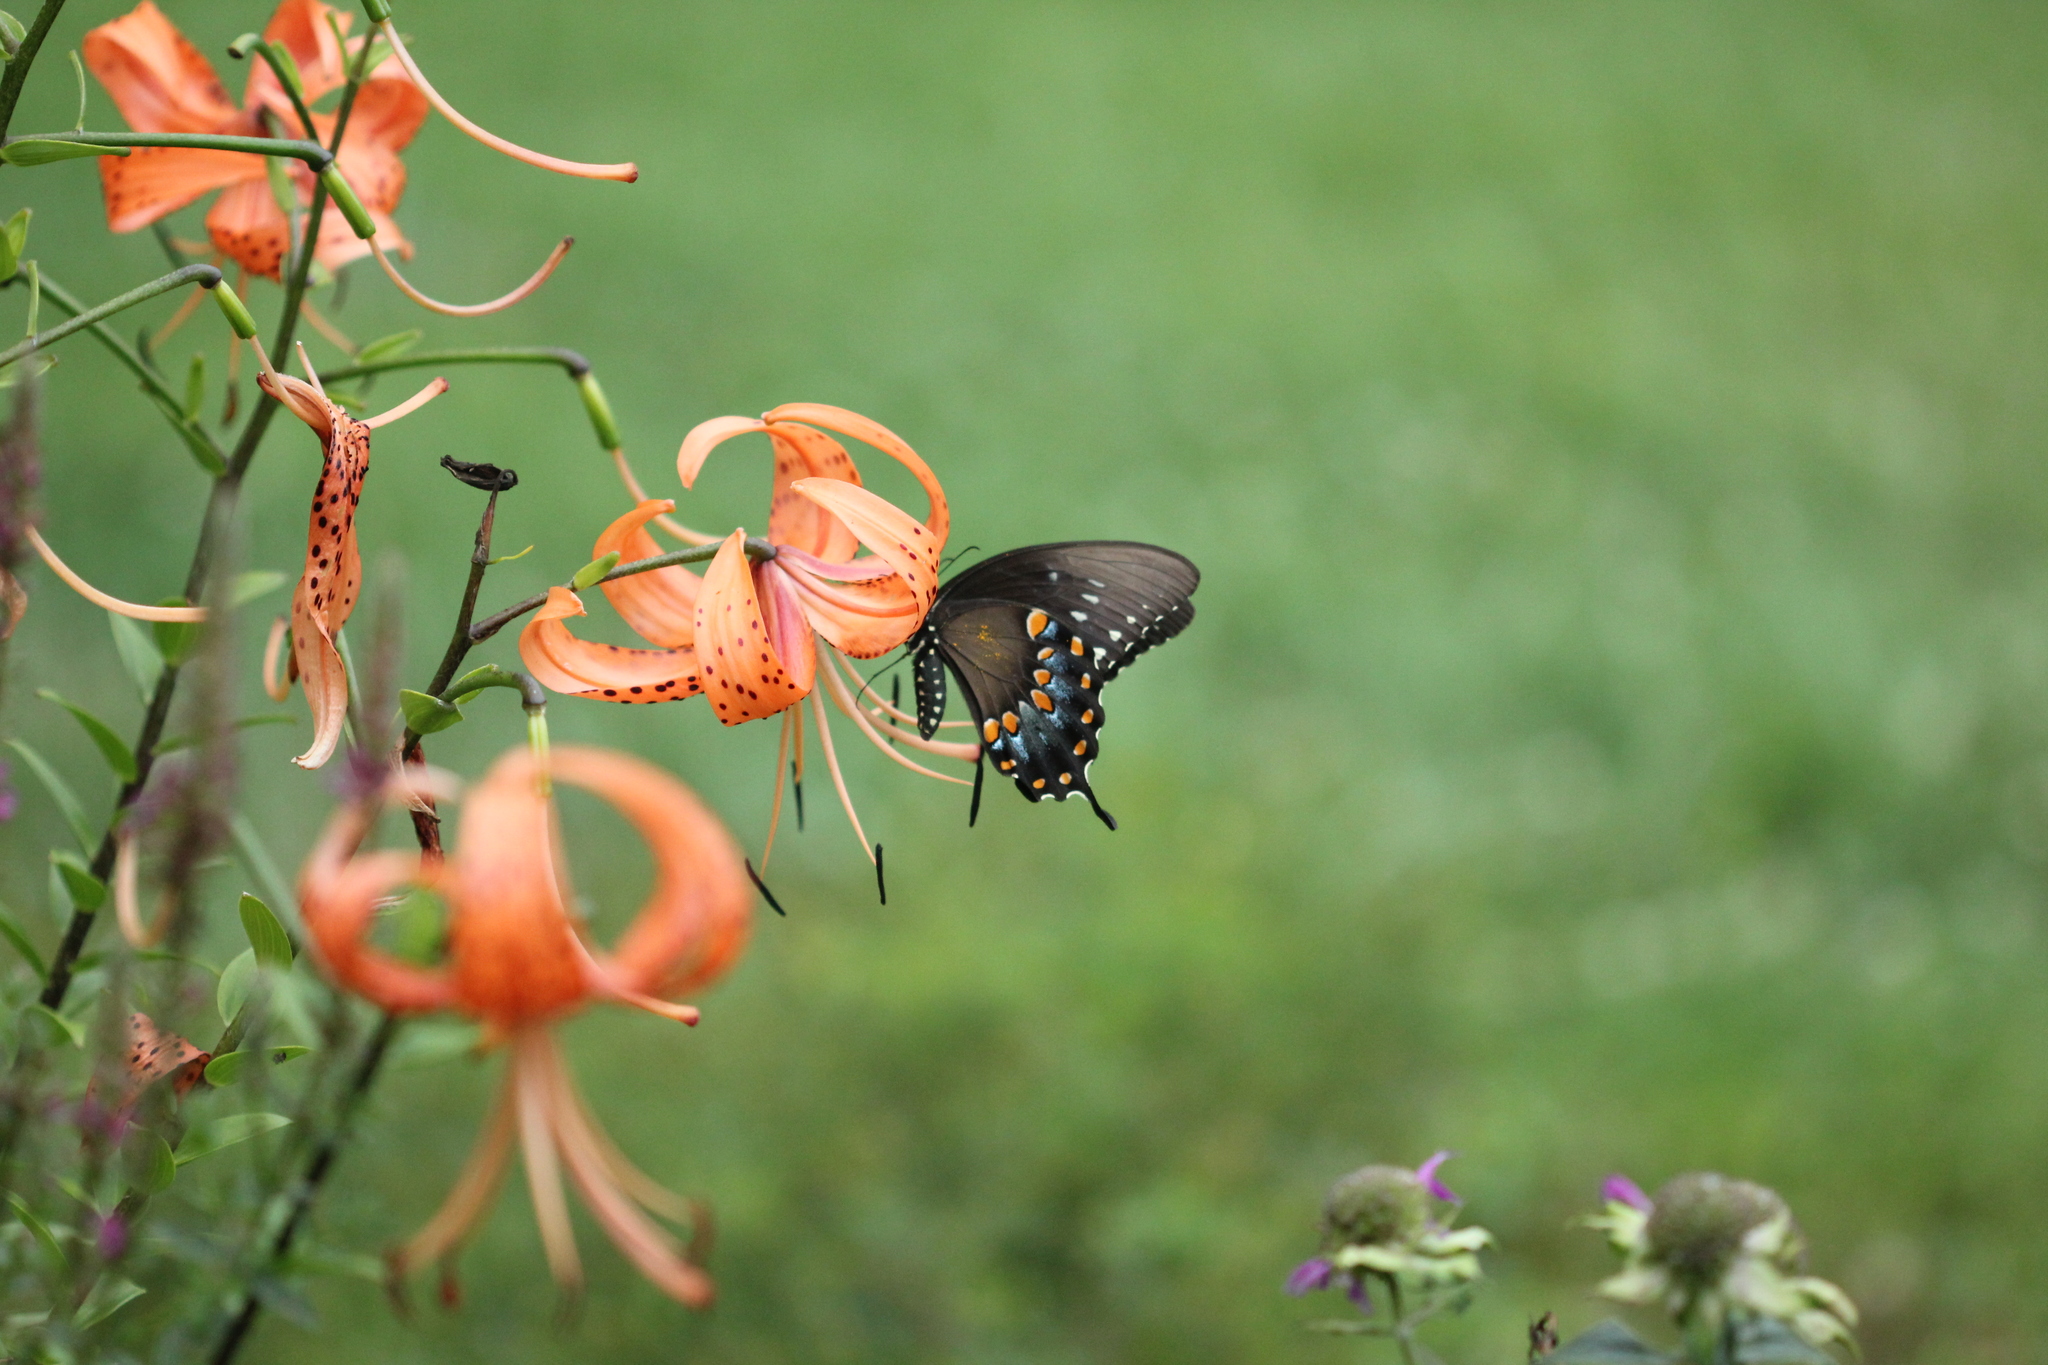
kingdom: Animalia
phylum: Arthropoda
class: Insecta
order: Lepidoptera
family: Papilionidae
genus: Papilio
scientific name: Papilio troilus
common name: Spicebush swallowtail
